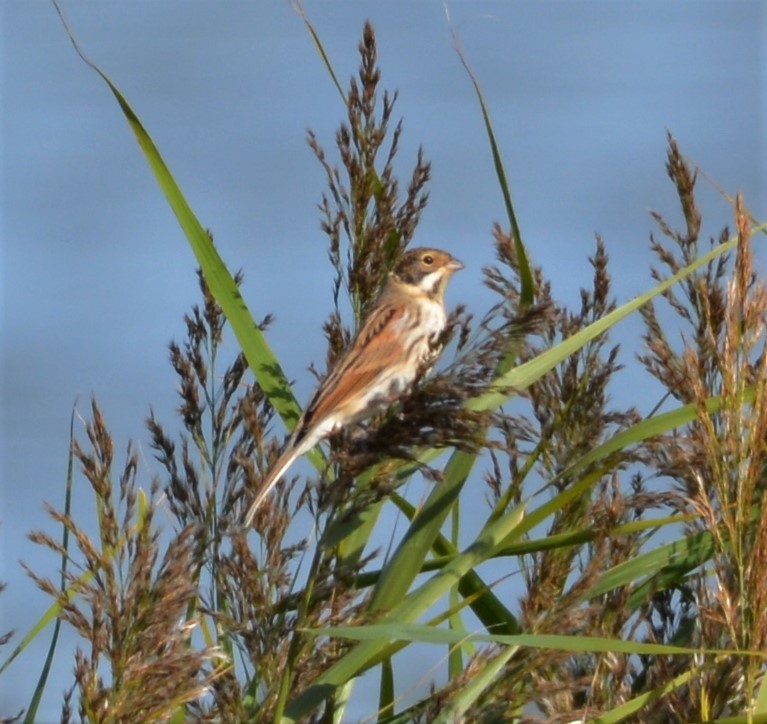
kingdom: Animalia
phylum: Chordata
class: Aves
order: Passeriformes
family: Emberizidae
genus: Emberiza
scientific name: Emberiza schoeniclus
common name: Reed bunting
